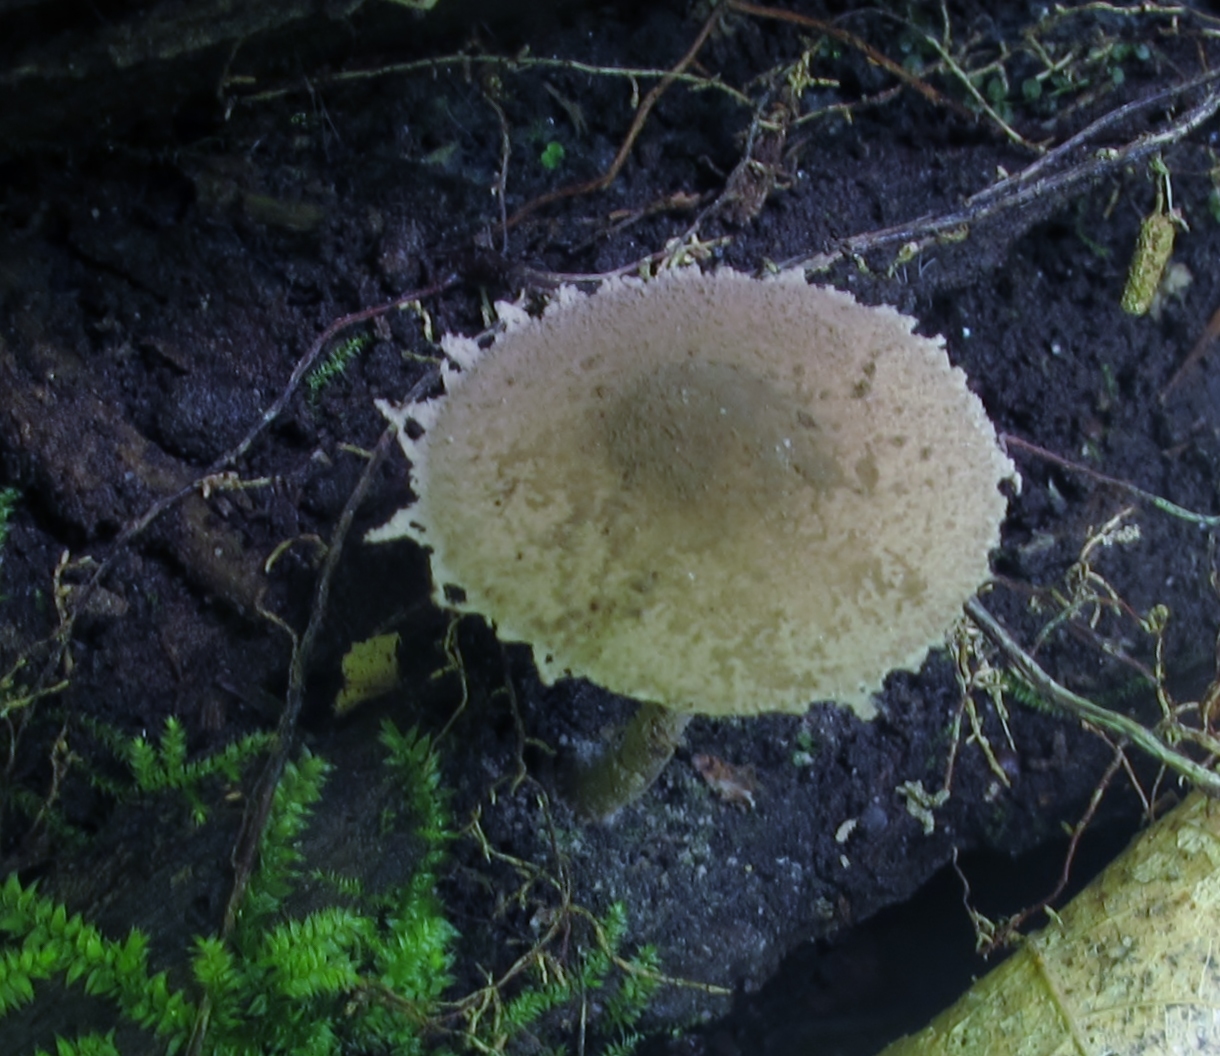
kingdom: Fungi
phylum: Basidiomycota
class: Agaricomycetes
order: Agaricales
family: Agaricaceae
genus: Melanophyllum
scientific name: Melanophyllum haematospermum
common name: Redspored dapperling
